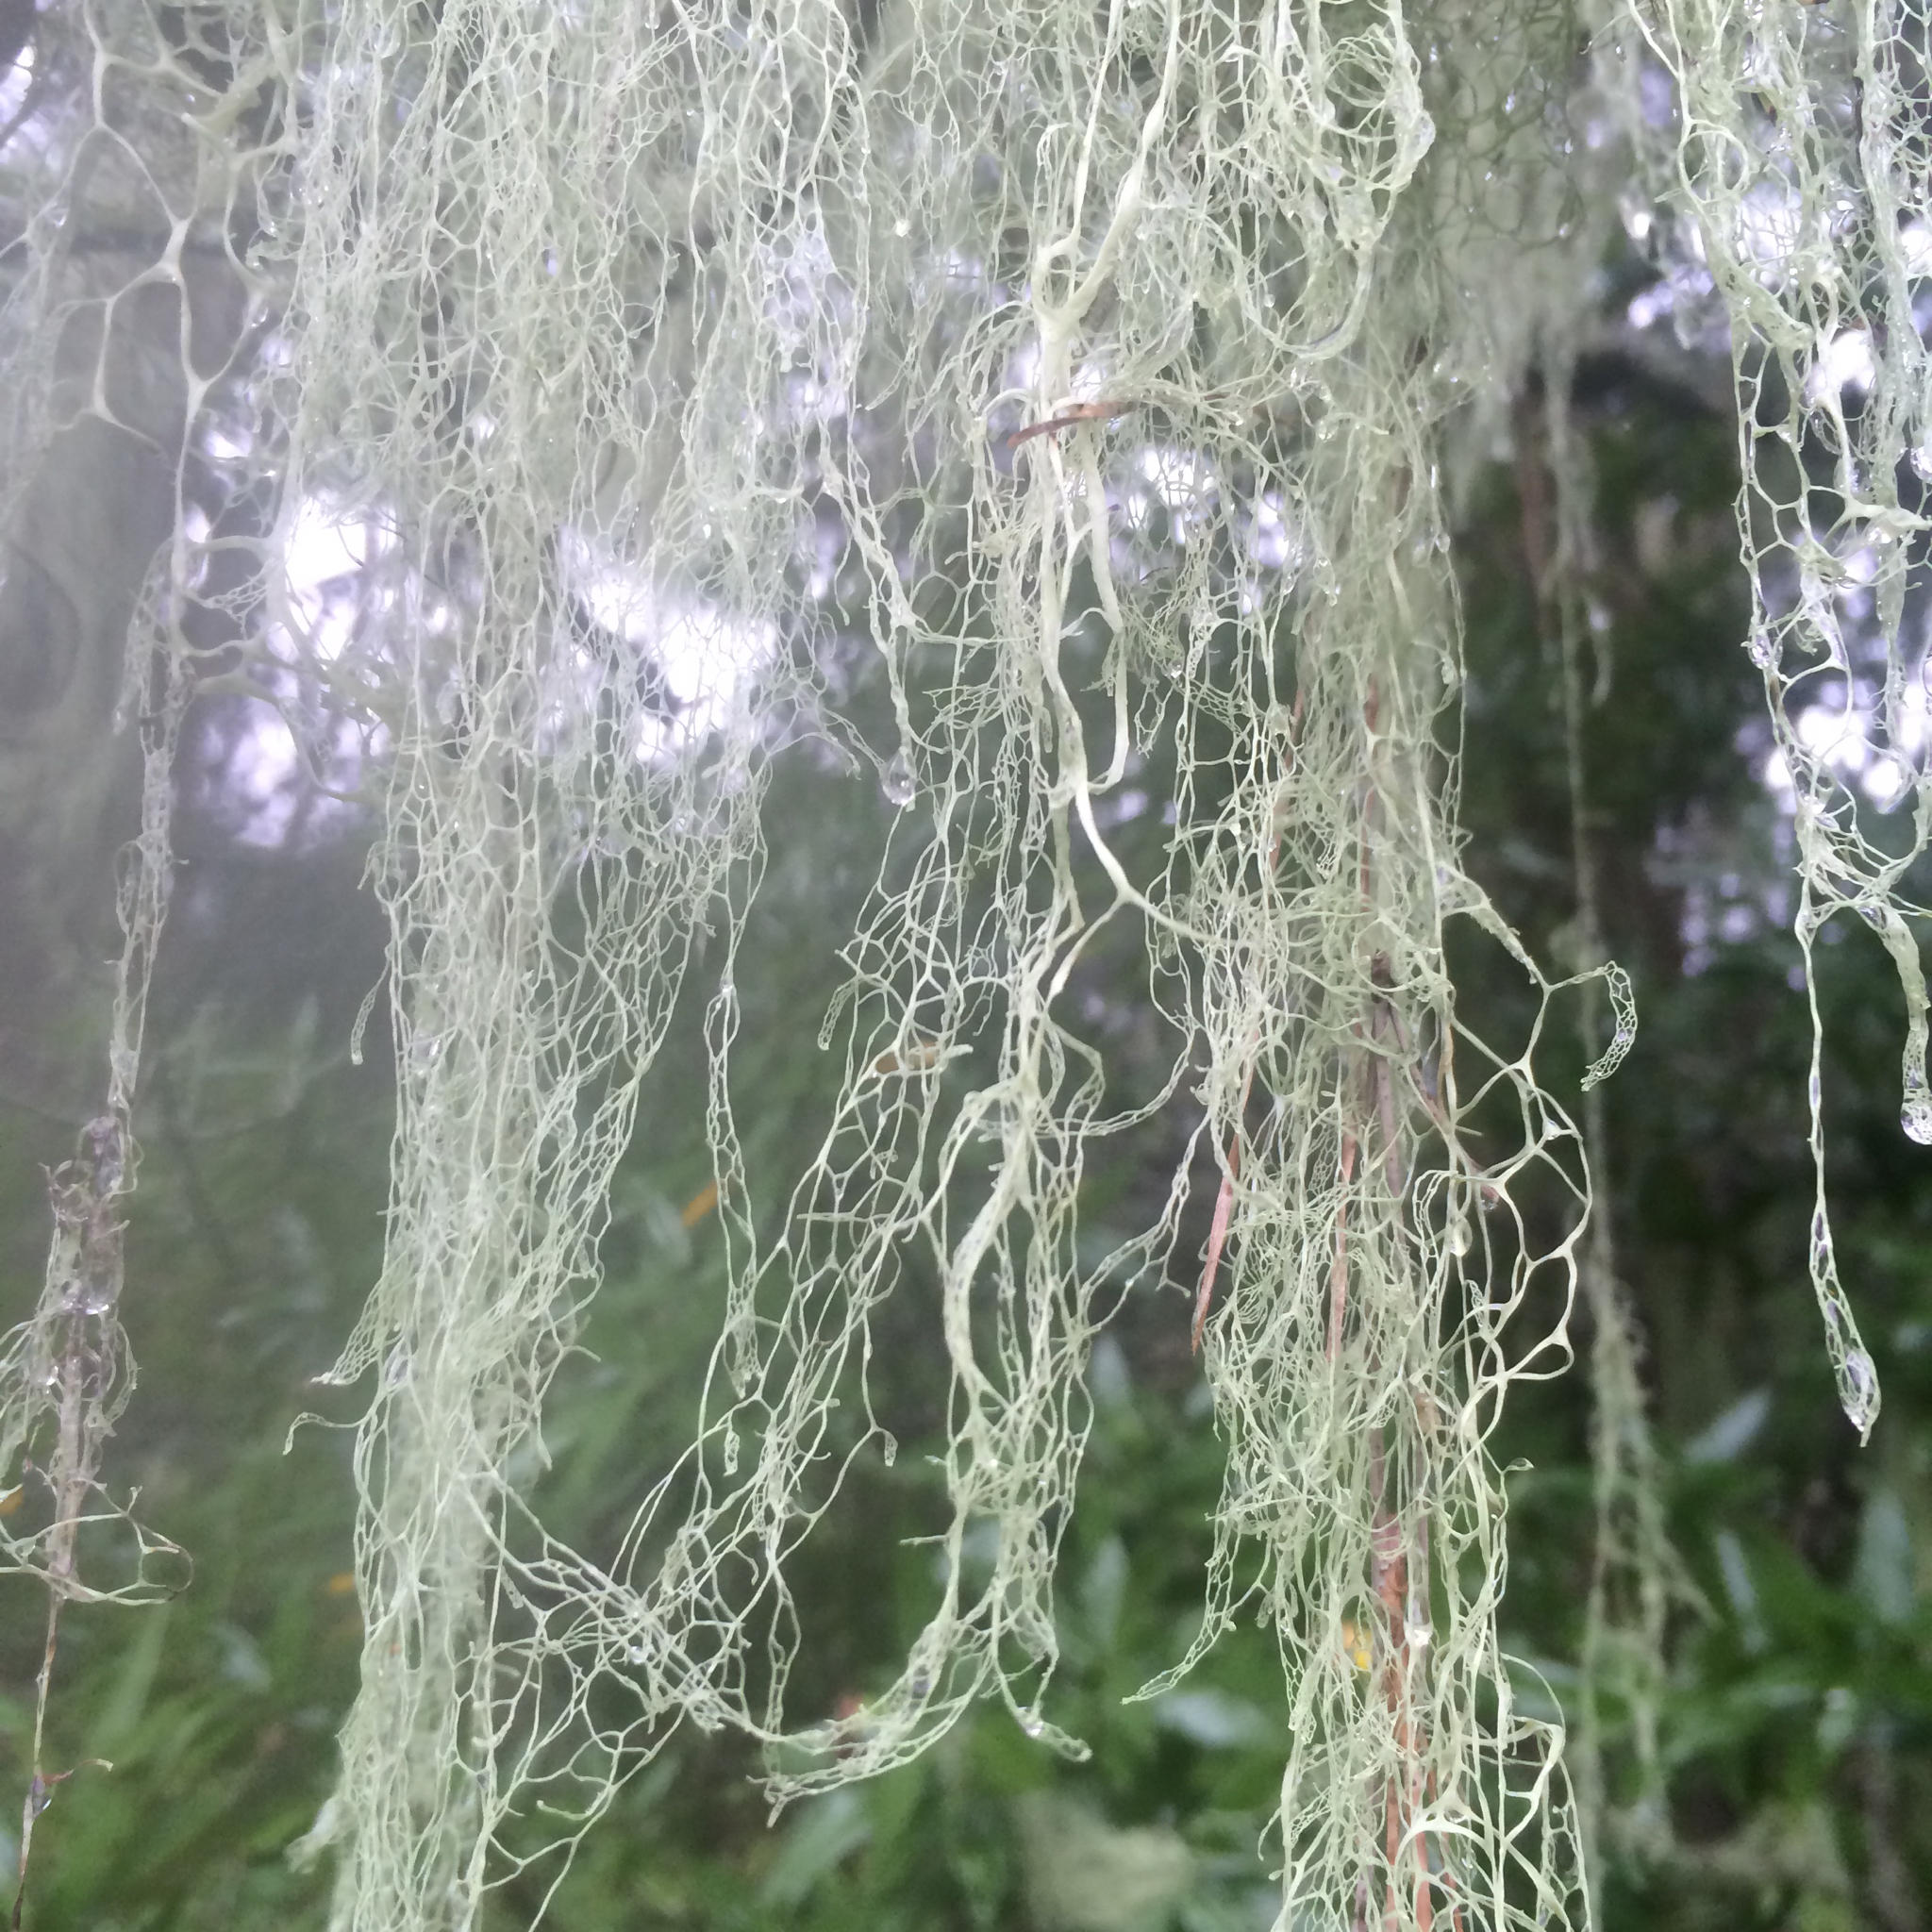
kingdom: Fungi
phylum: Ascomycota
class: Lecanoromycetes
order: Lecanorales
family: Ramalinaceae
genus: Ramalina
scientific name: Ramalina menziesii
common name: Lace lichen
